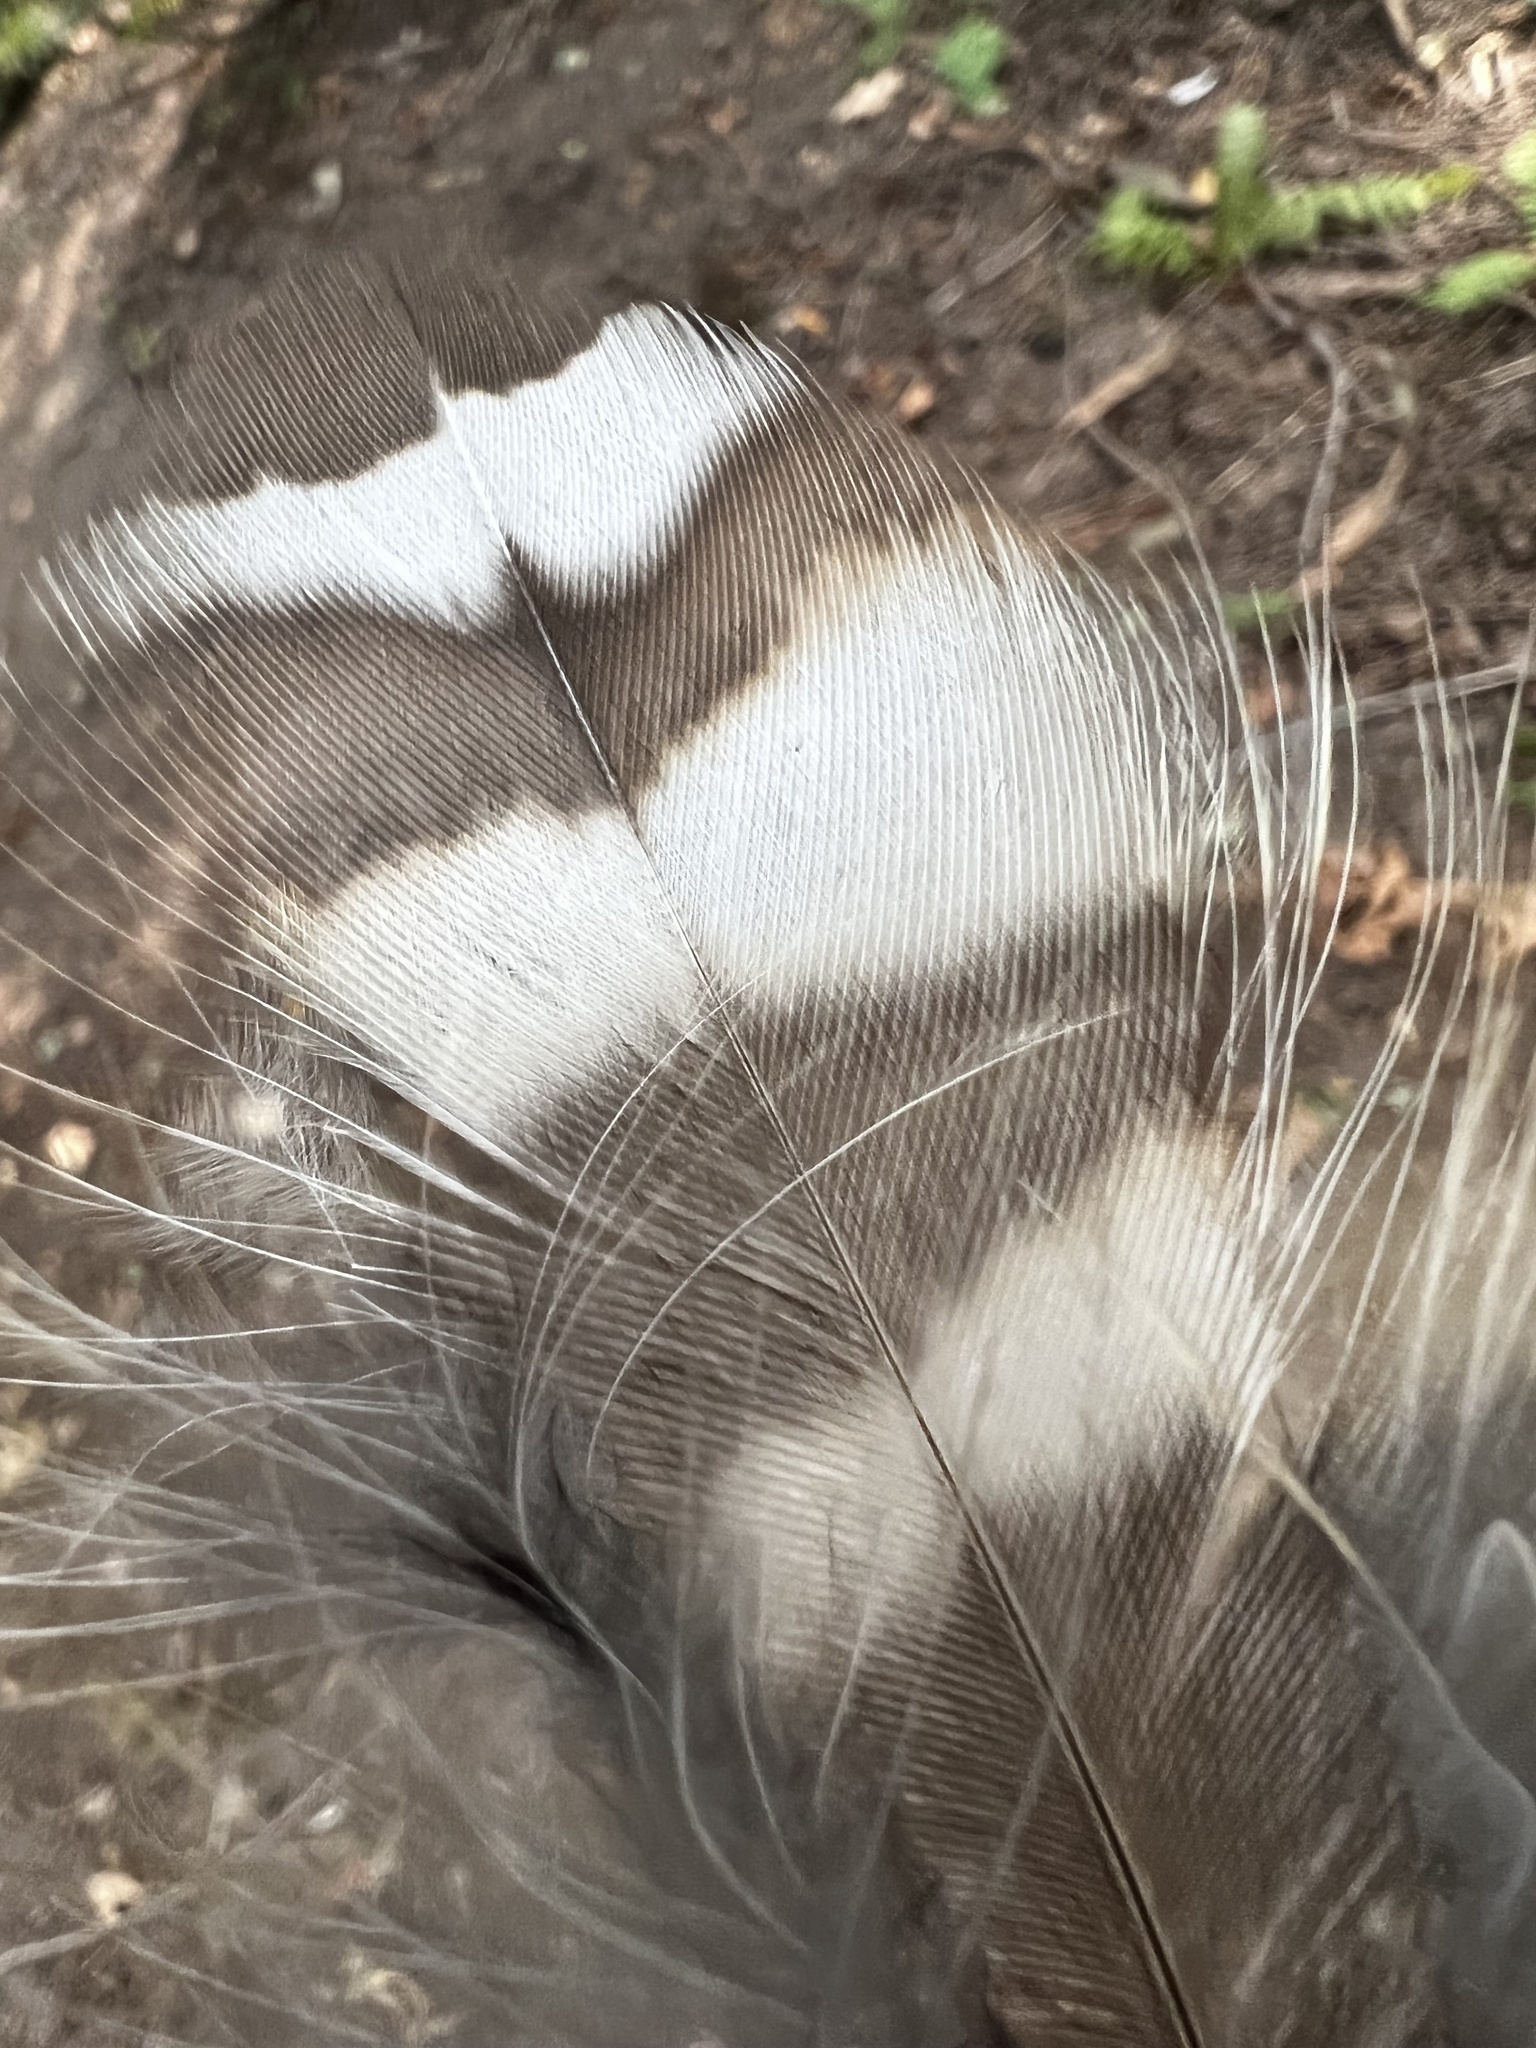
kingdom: Animalia
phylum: Chordata
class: Aves
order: Strigiformes
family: Strigidae
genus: Strix
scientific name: Strix varia
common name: Barred owl
